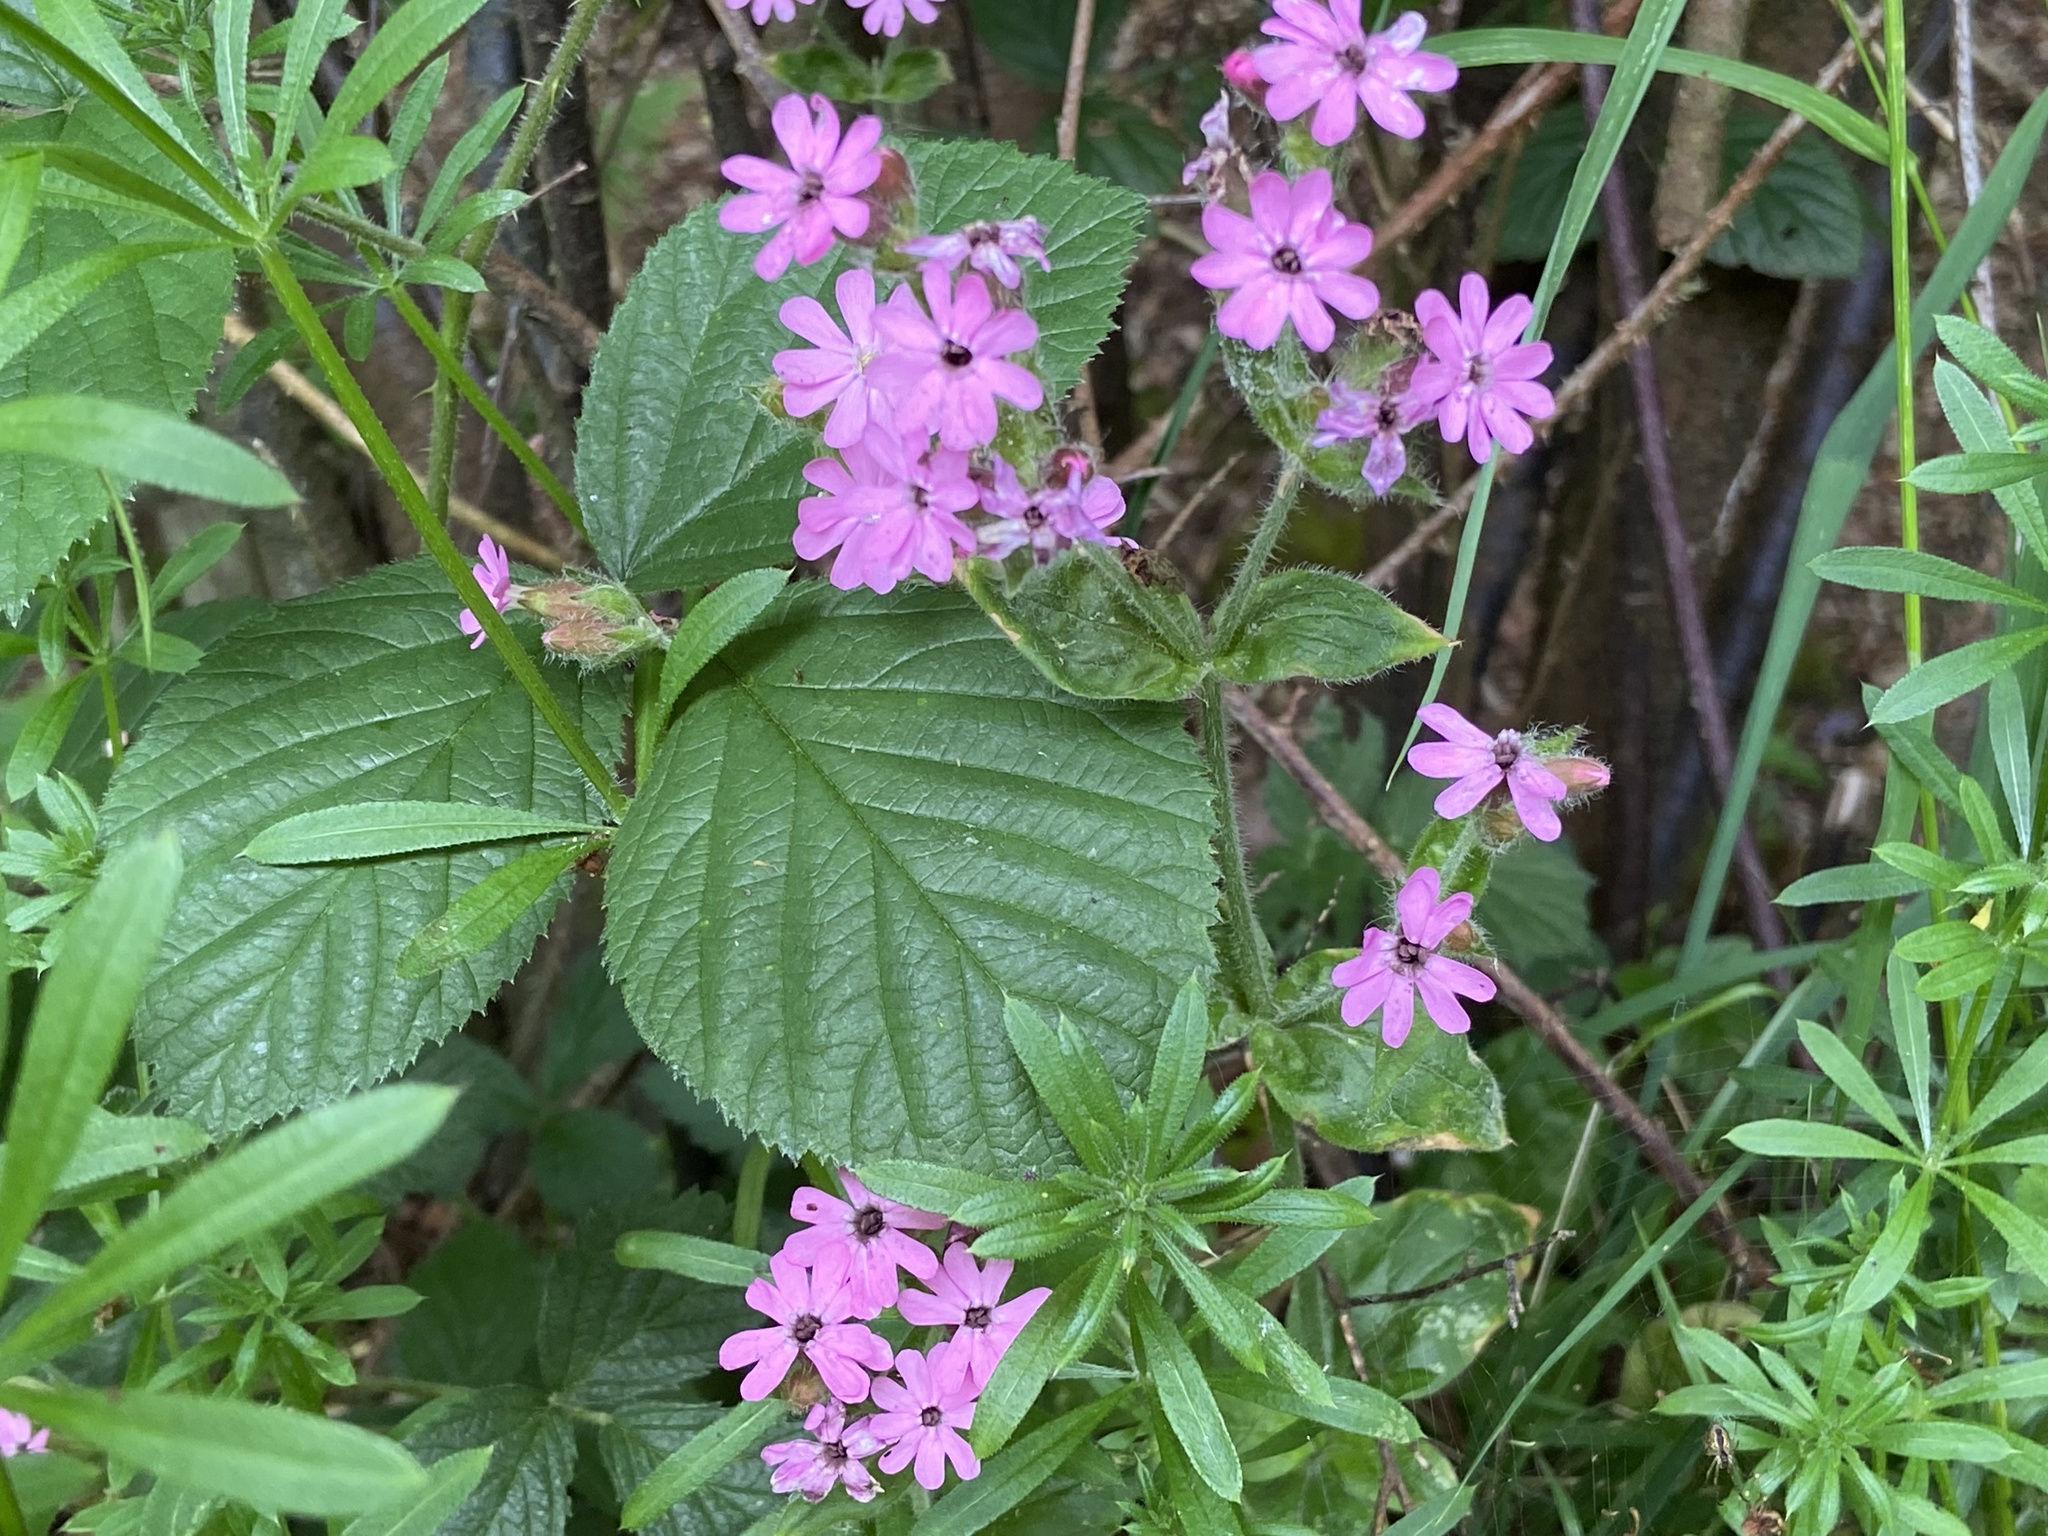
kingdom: Plantae
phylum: Tracheophyta
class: Magnoliopsida
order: Caryophyllales
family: Caryophyllaceae
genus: Silene
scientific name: Silene dioica
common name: Red campion
